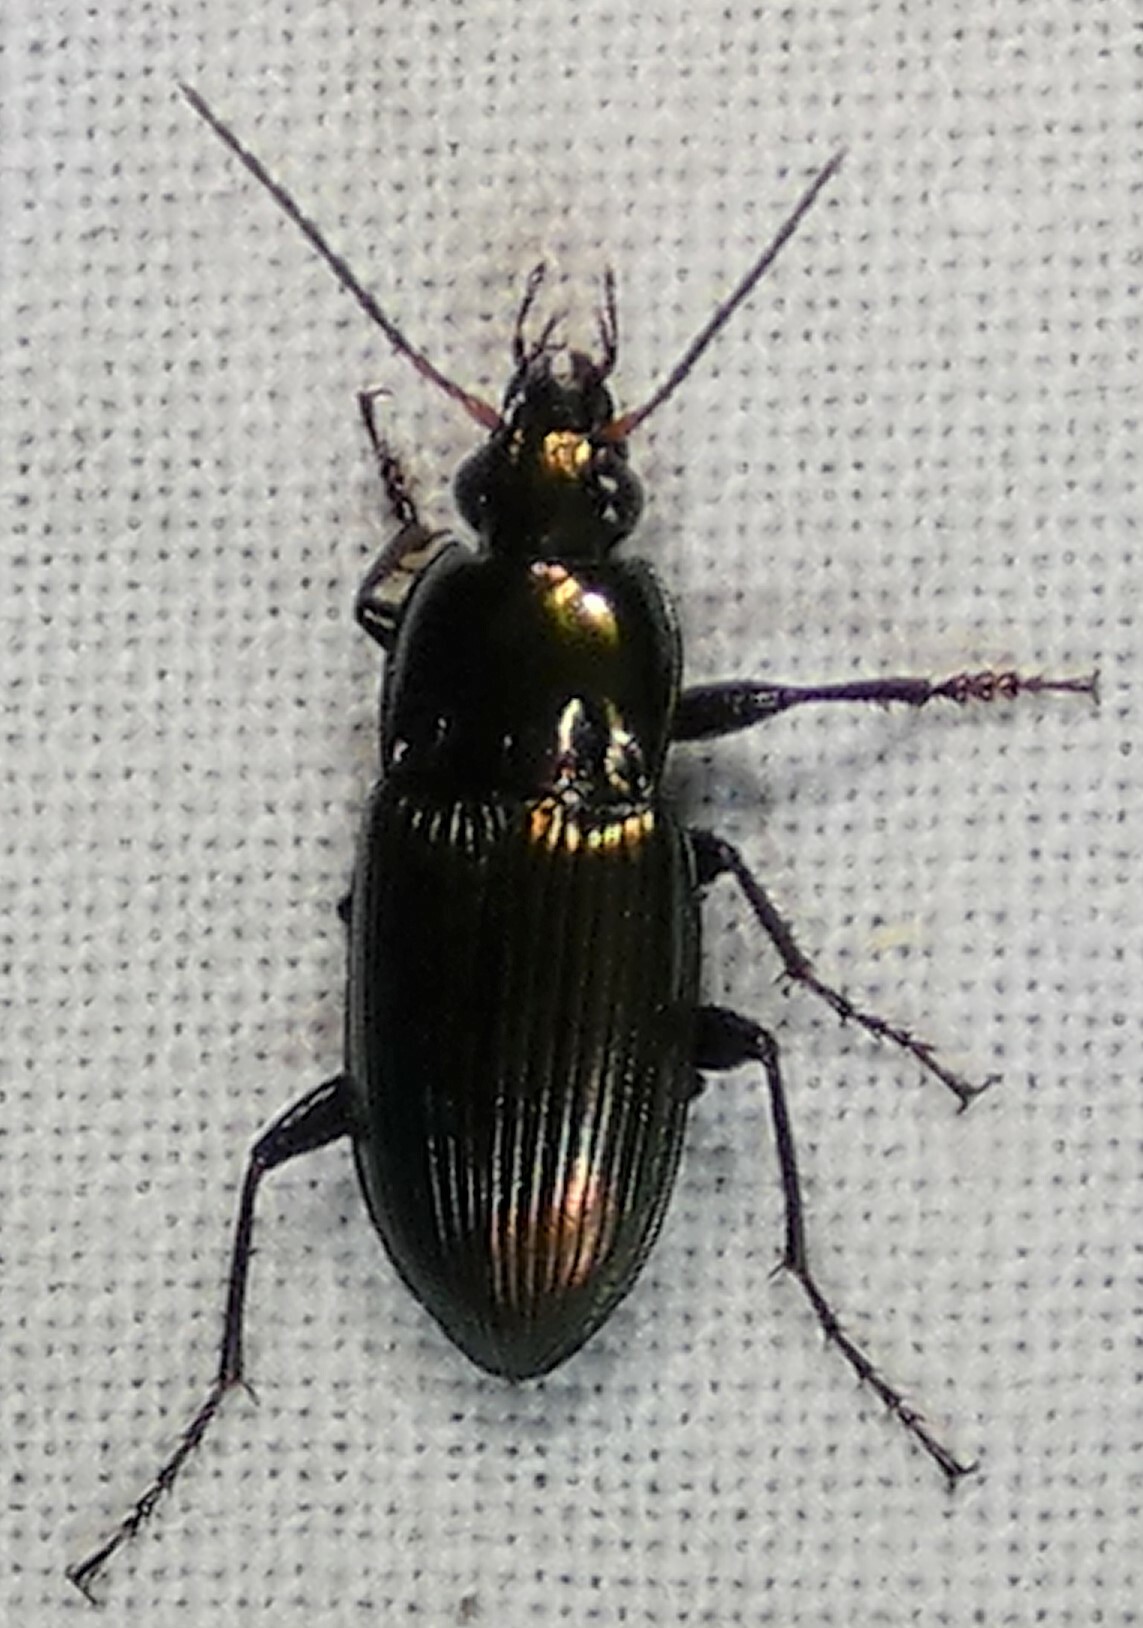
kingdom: Animalia
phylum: Arthropoda
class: Insecta
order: Coleoptera
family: Carabidae
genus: Poecilus
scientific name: Poecilus chalcites
